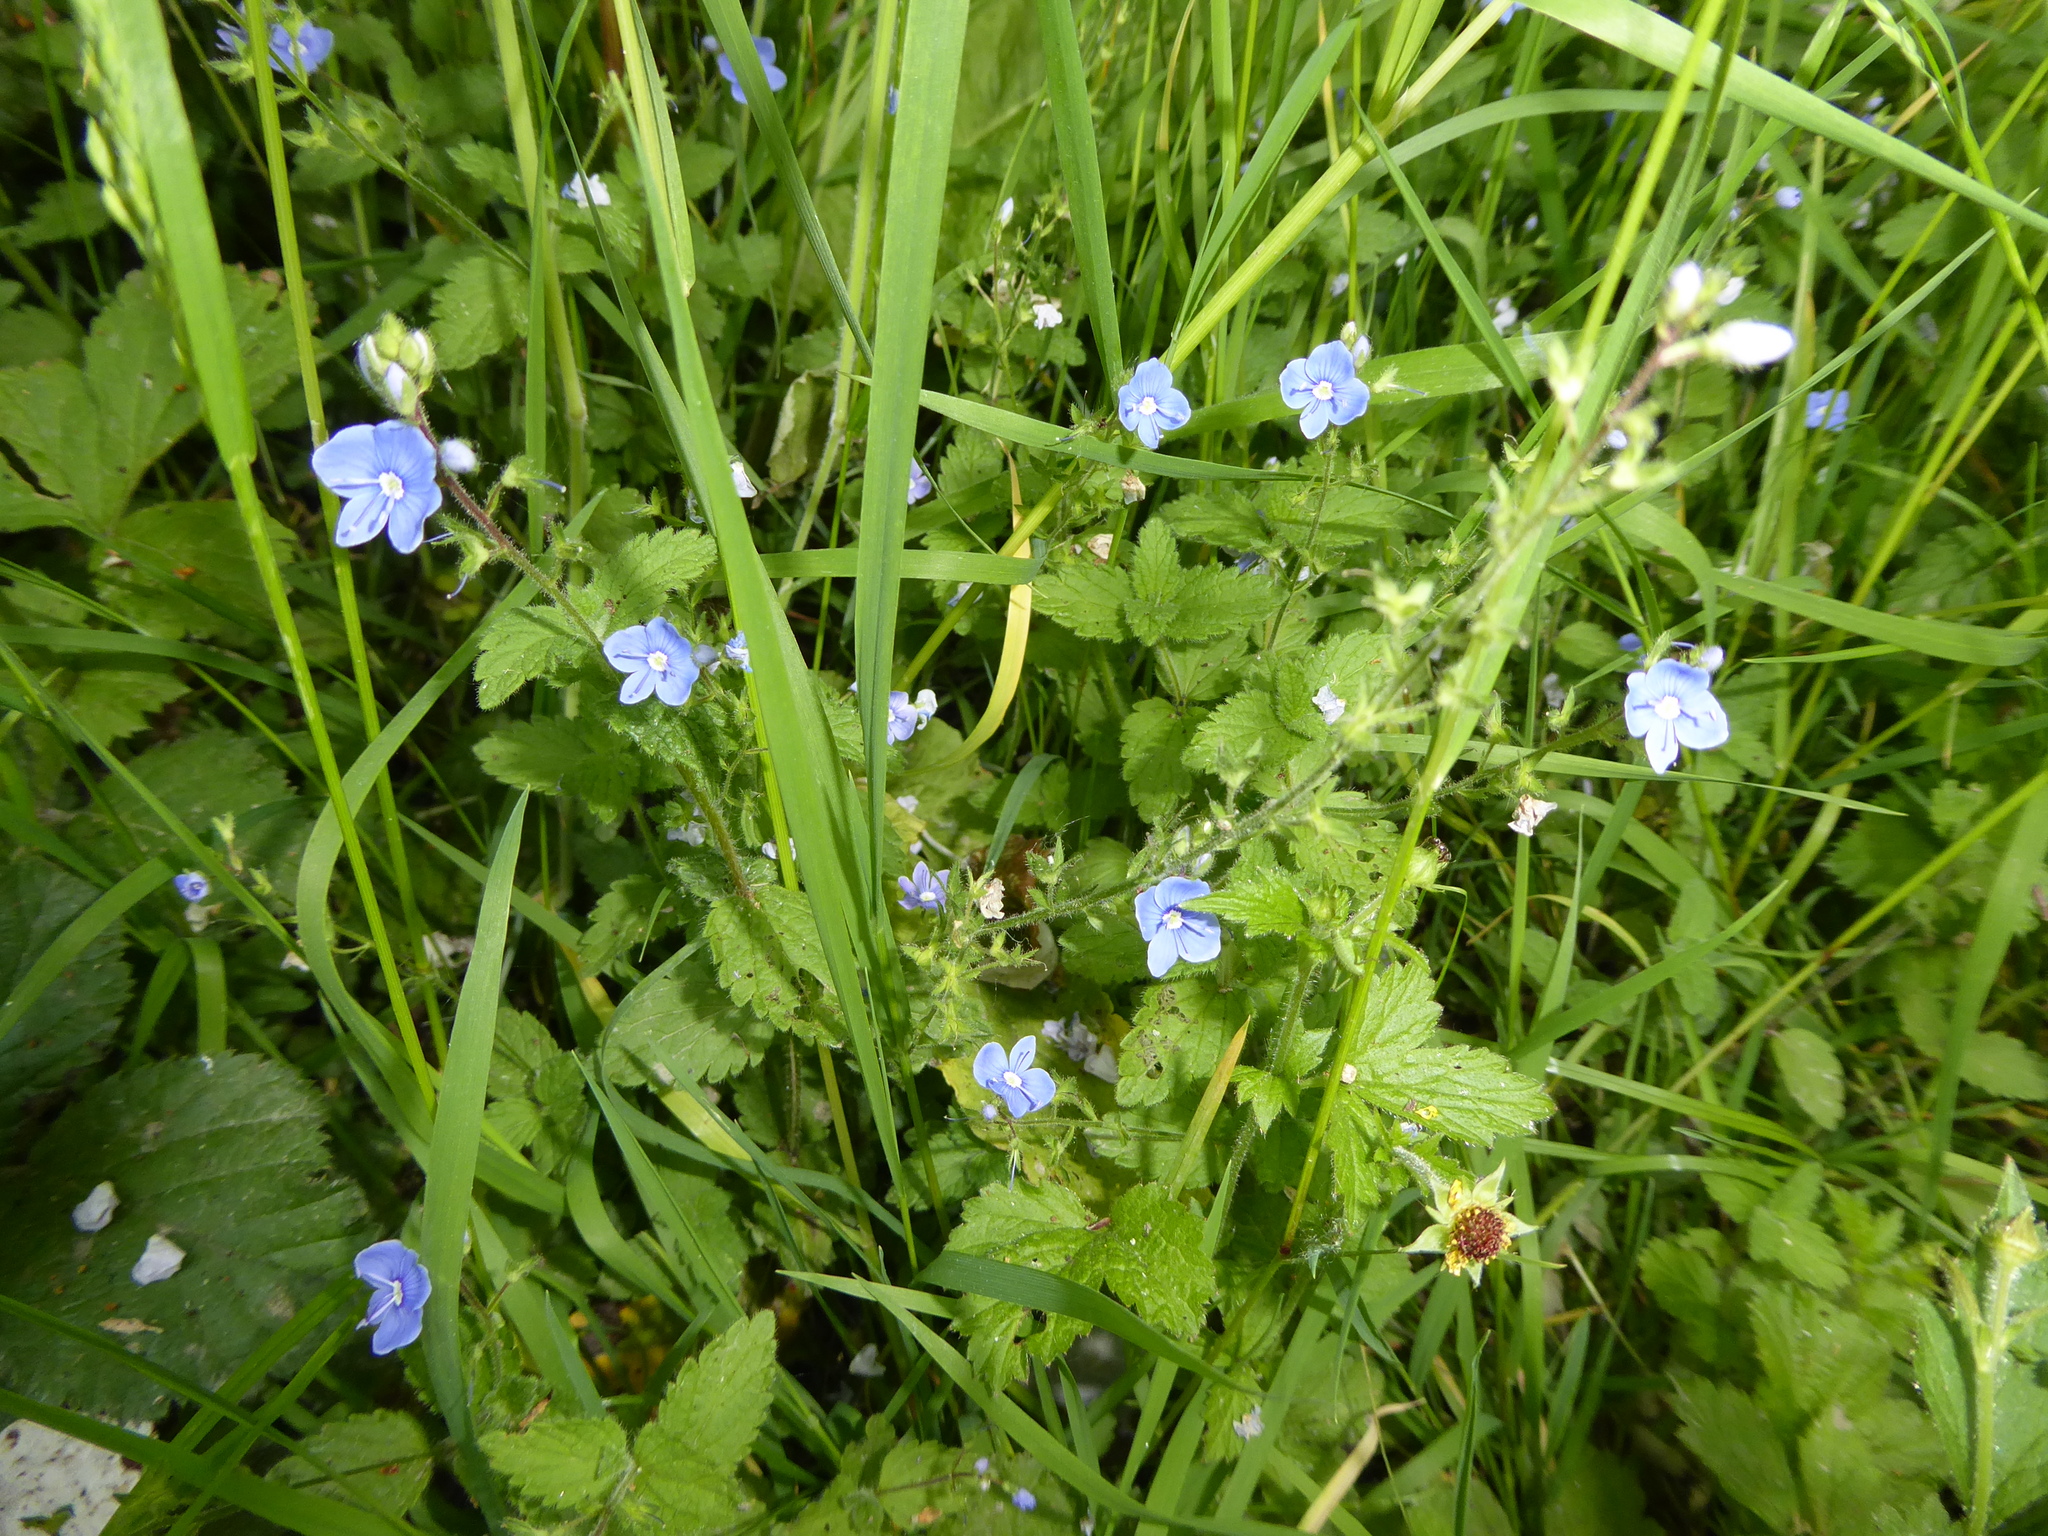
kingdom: Plantae
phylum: Tracheophyta
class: Magnoliopsida
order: Lamiales
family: Plantaginaceae
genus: Veronica
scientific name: Veronica chamaedrys
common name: Germander speedwell
